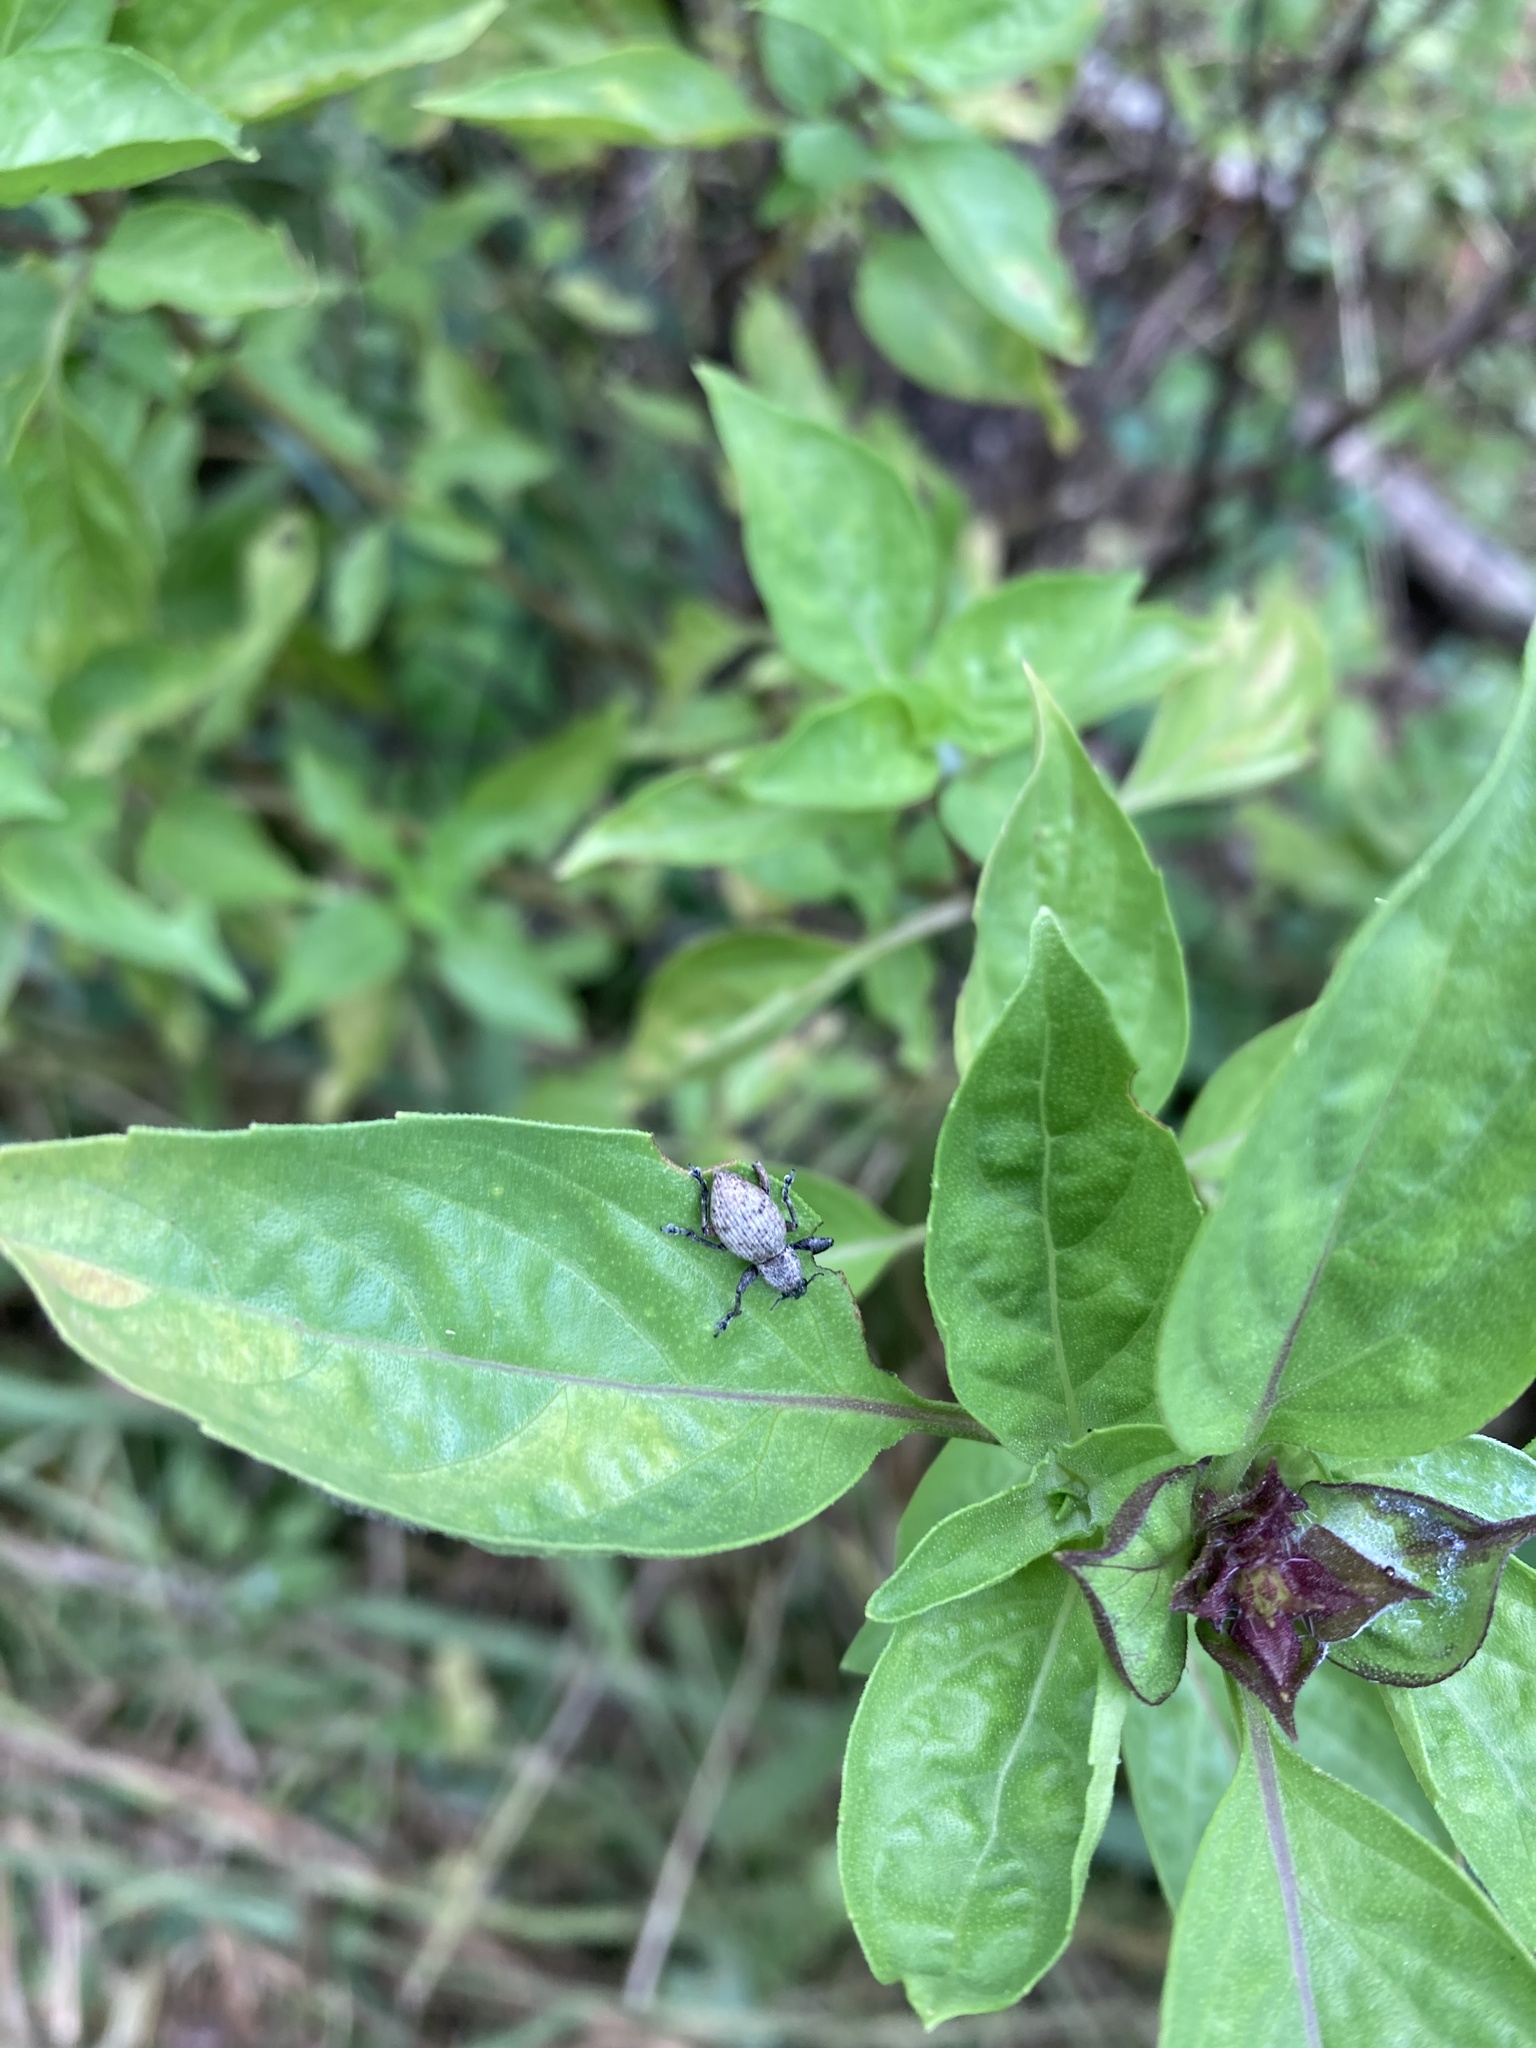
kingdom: Animalia
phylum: Arthropoda
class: Insecta
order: Coleoptera
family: Curculionidae
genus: Sympiezomias
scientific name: Sympiezomias cribricollis
